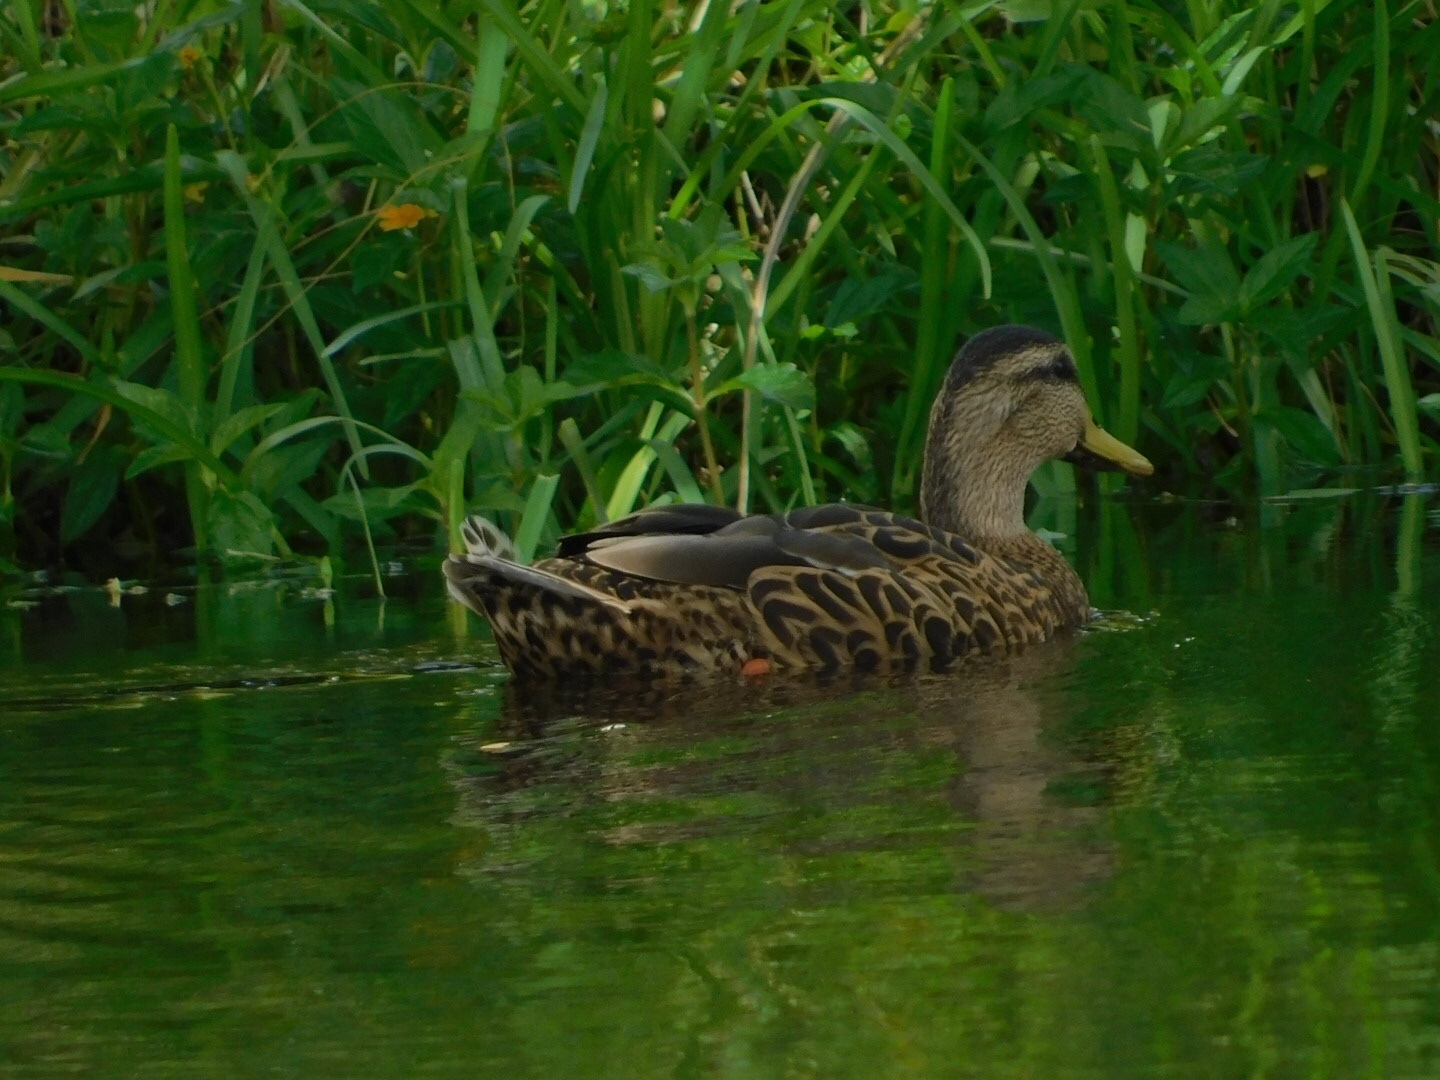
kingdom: Animalia
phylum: Chordata
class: Aves
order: Anseriformes
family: Anatidae
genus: Anas
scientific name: Anas
